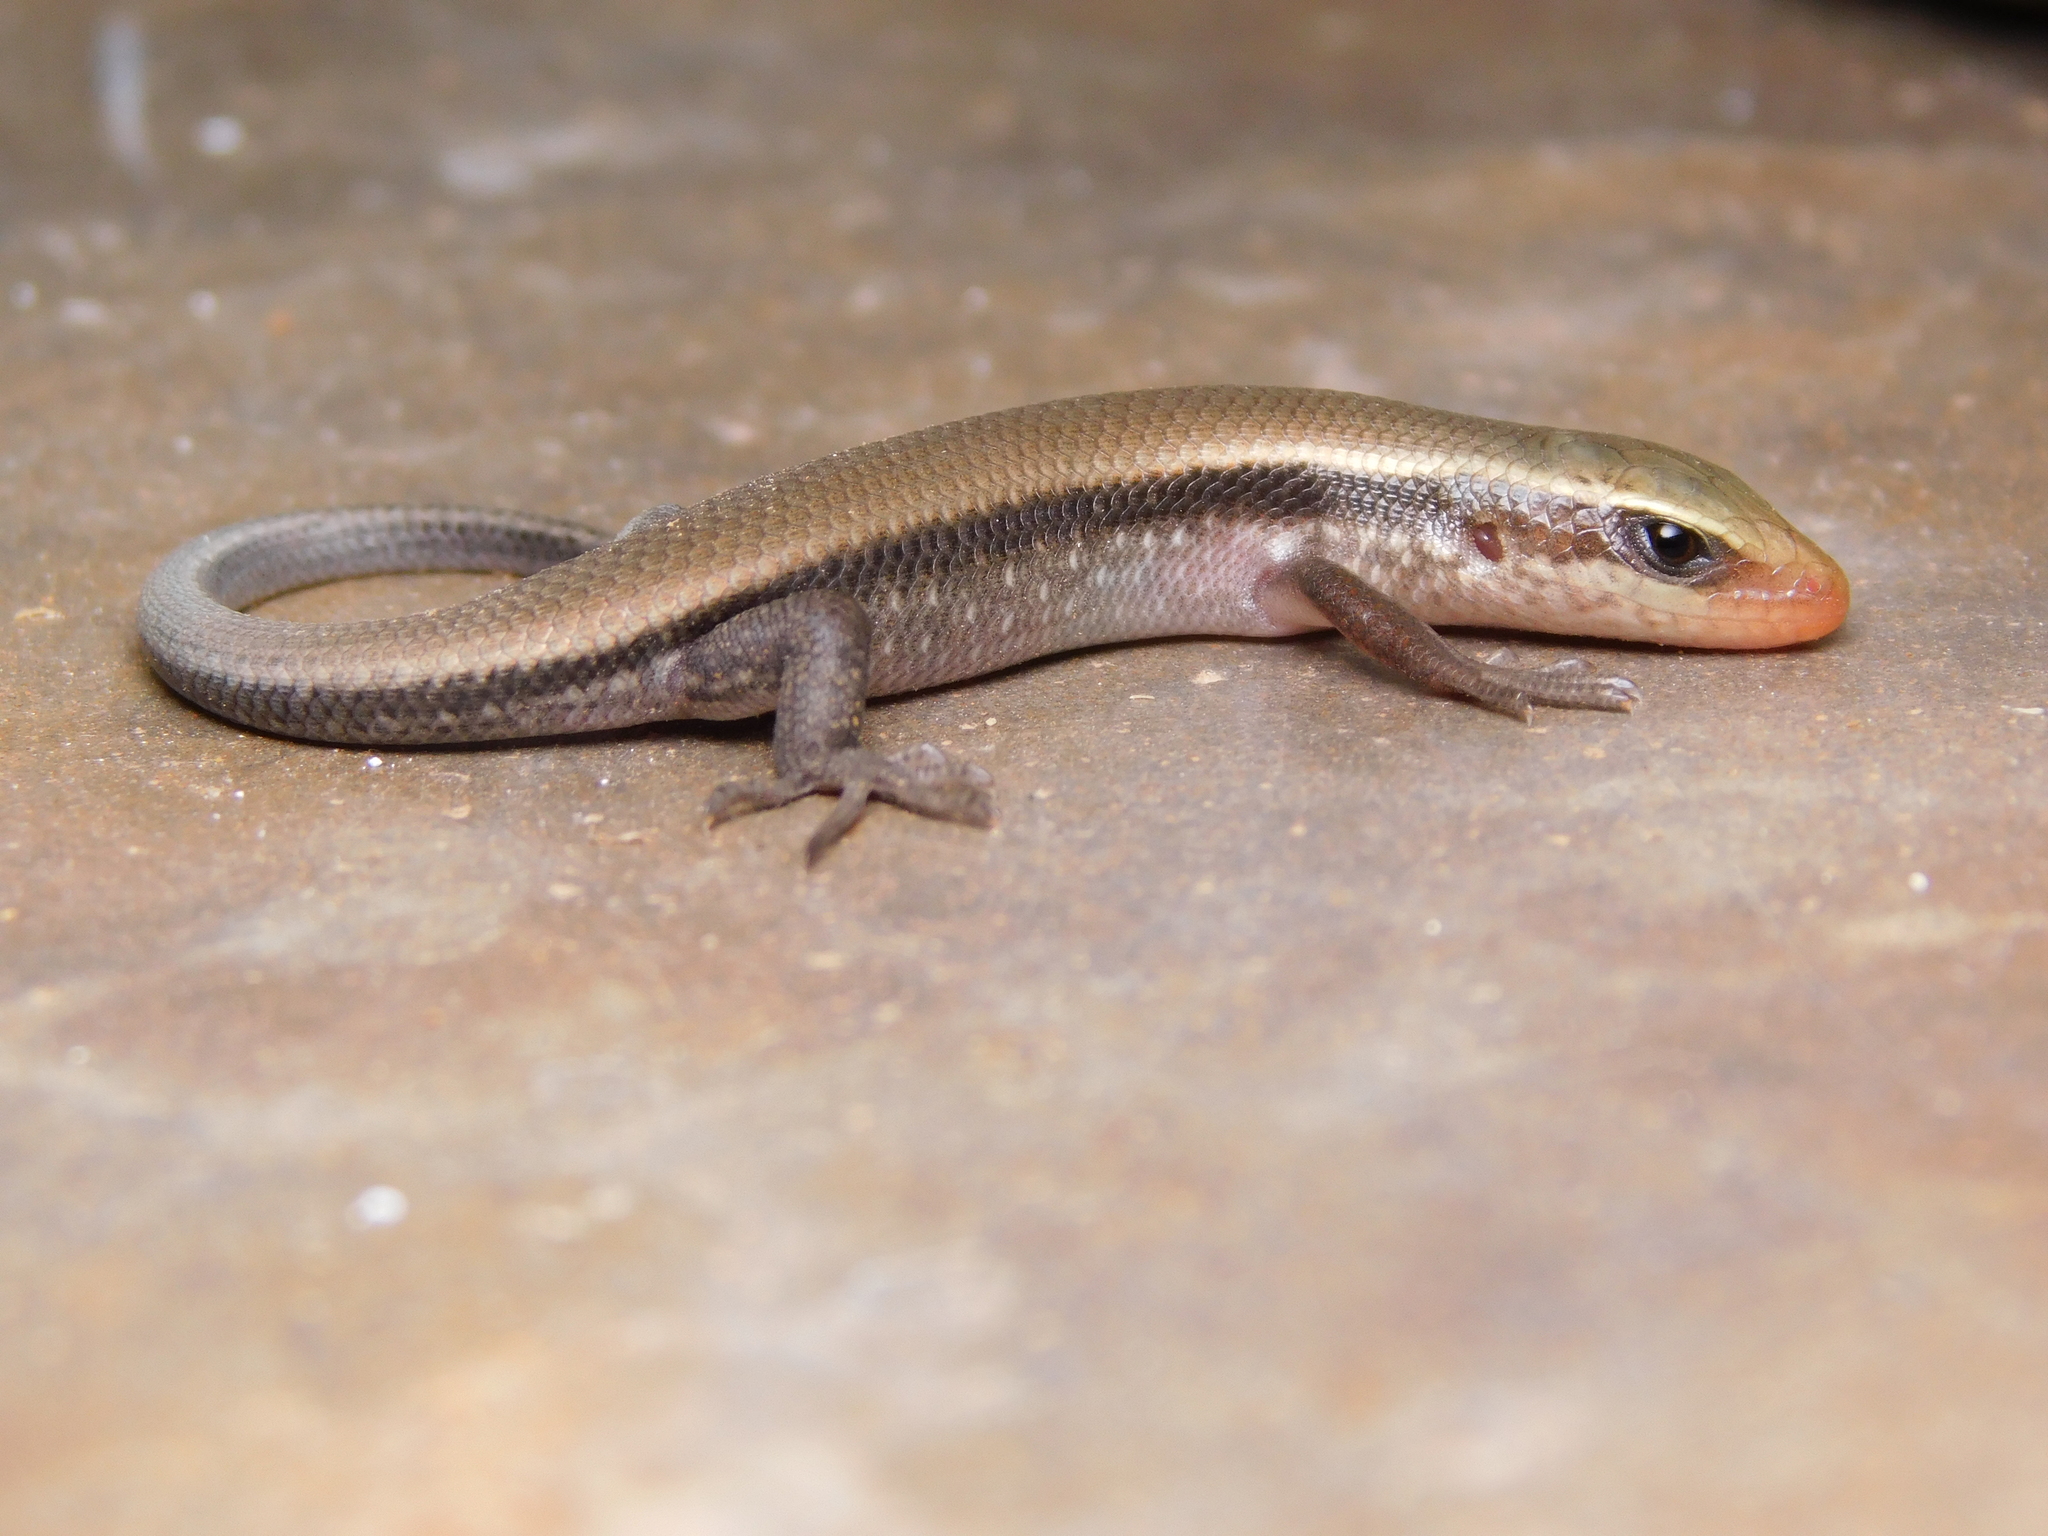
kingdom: Animalia
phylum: Chordata
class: Squamata
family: Scincidae
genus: Eutropis
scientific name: Eutropis carinata
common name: Keeled indian mabuya
